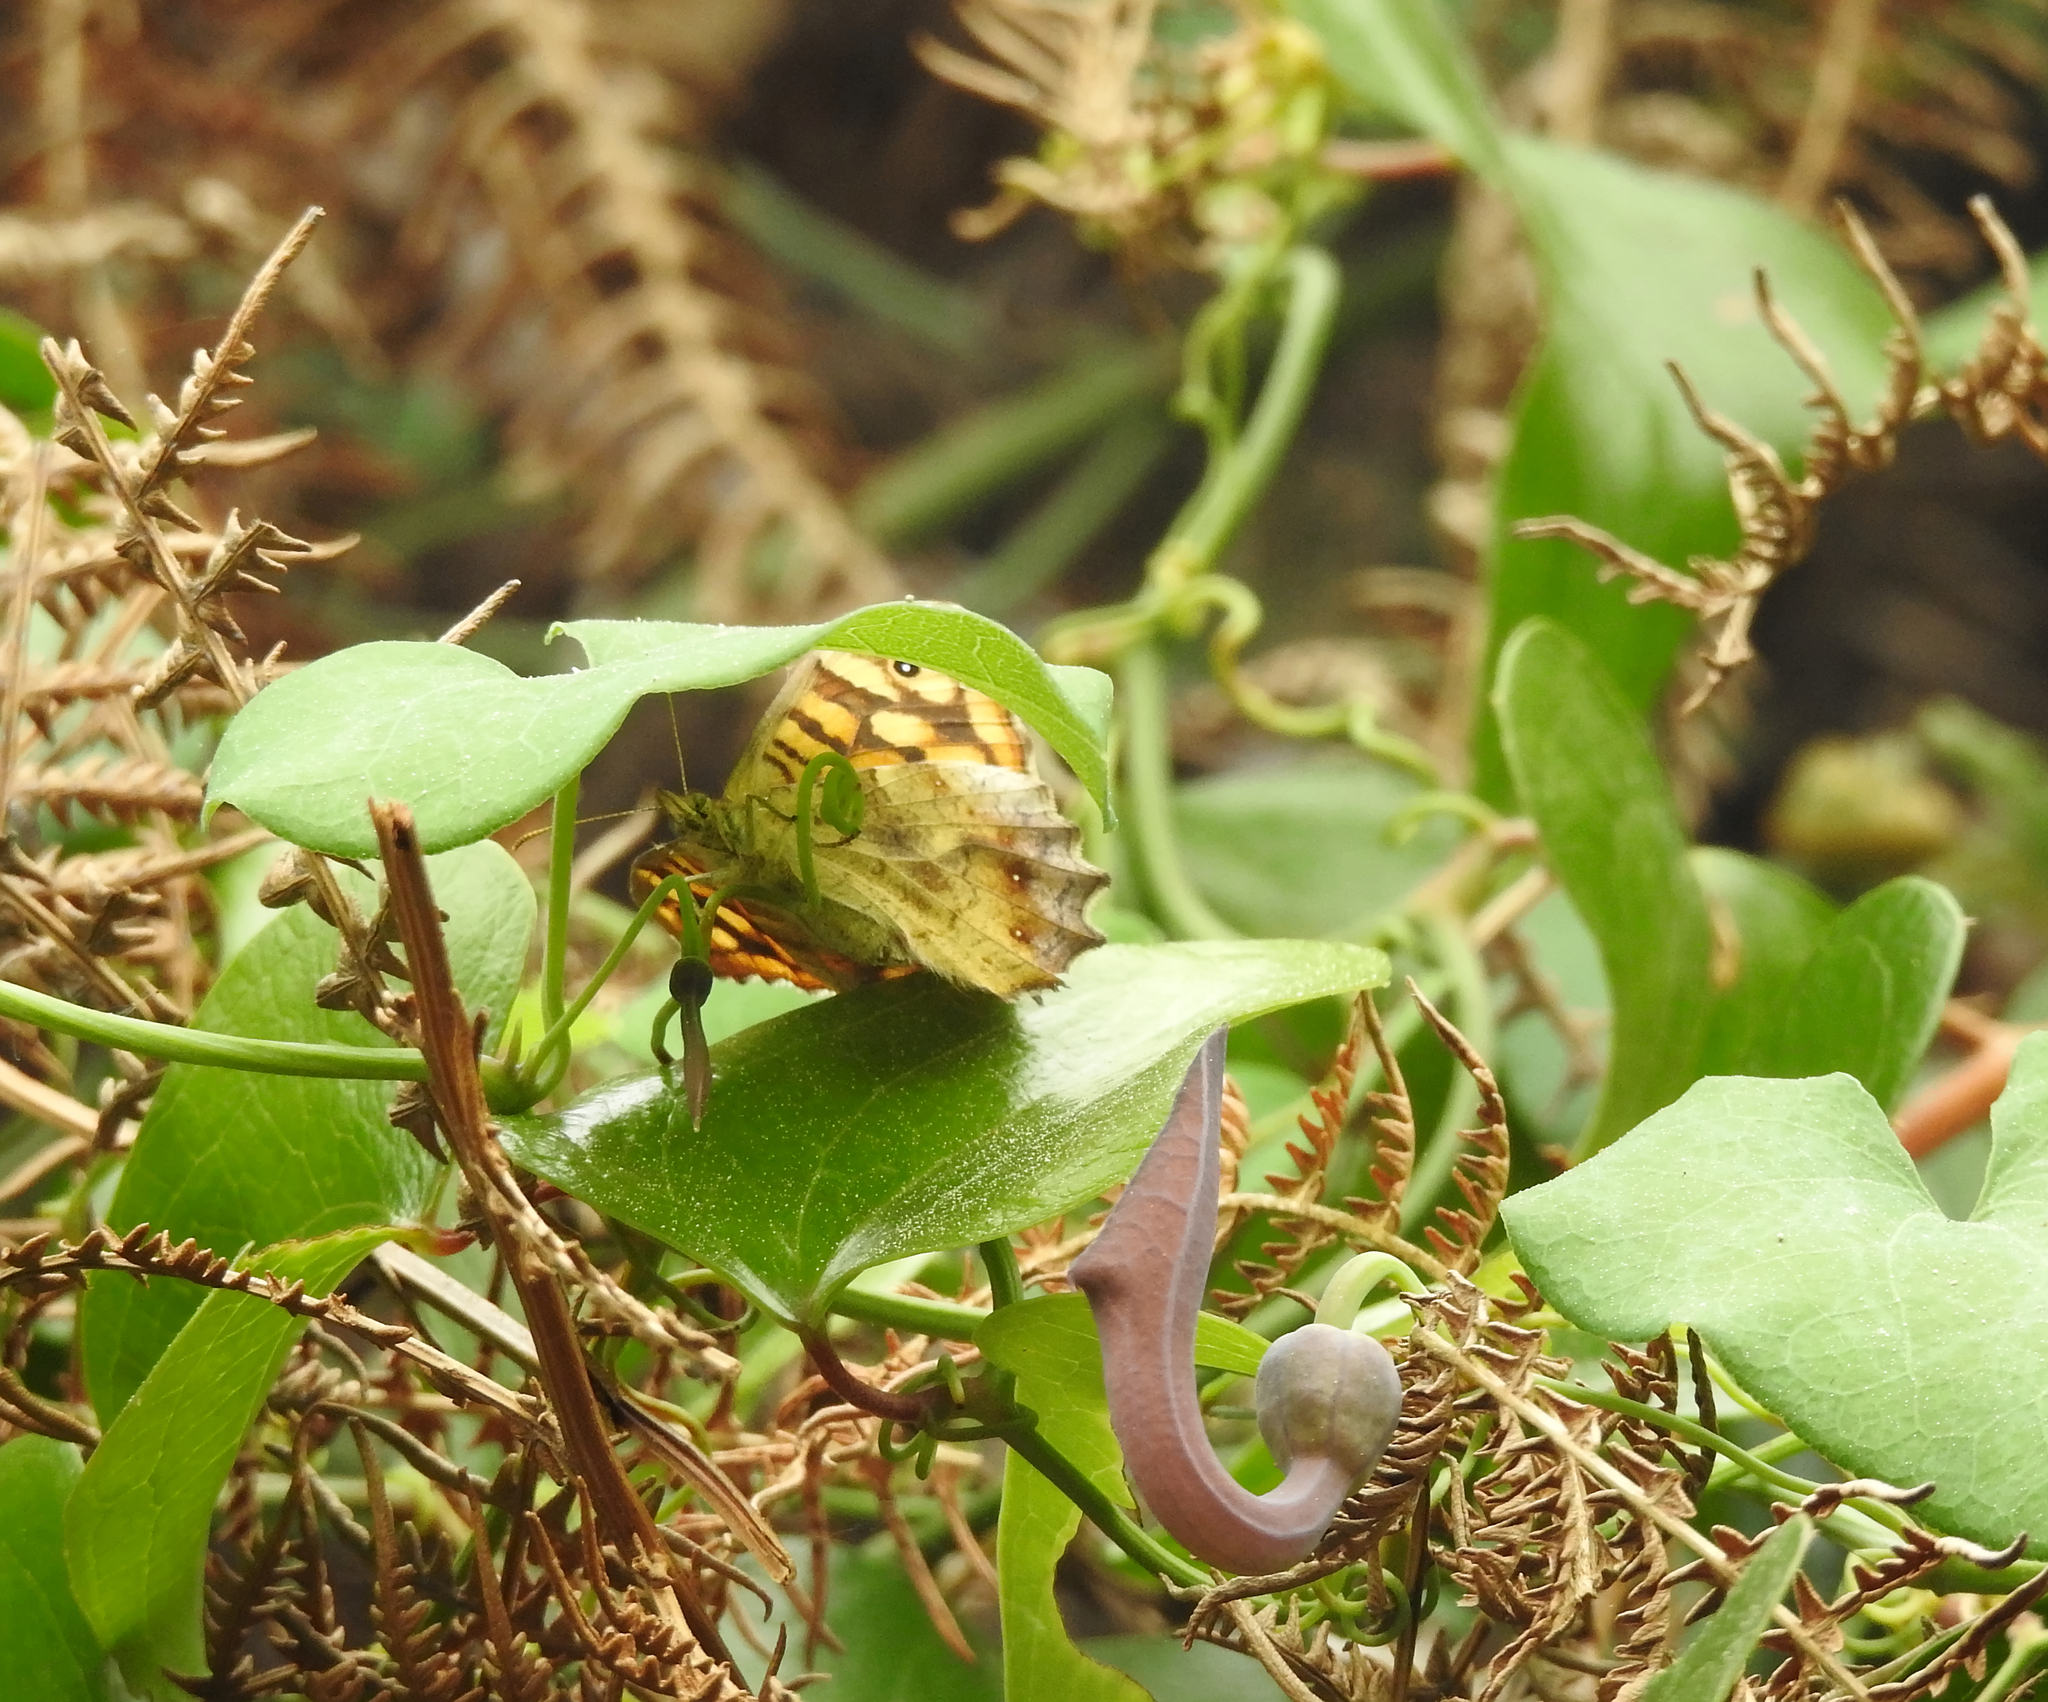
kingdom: Animalia
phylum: Arthropoda
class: Insecta
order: Lepidoptera
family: Nymphalidae
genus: Pararge
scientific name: Pararge aegeria
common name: Speckled wood
